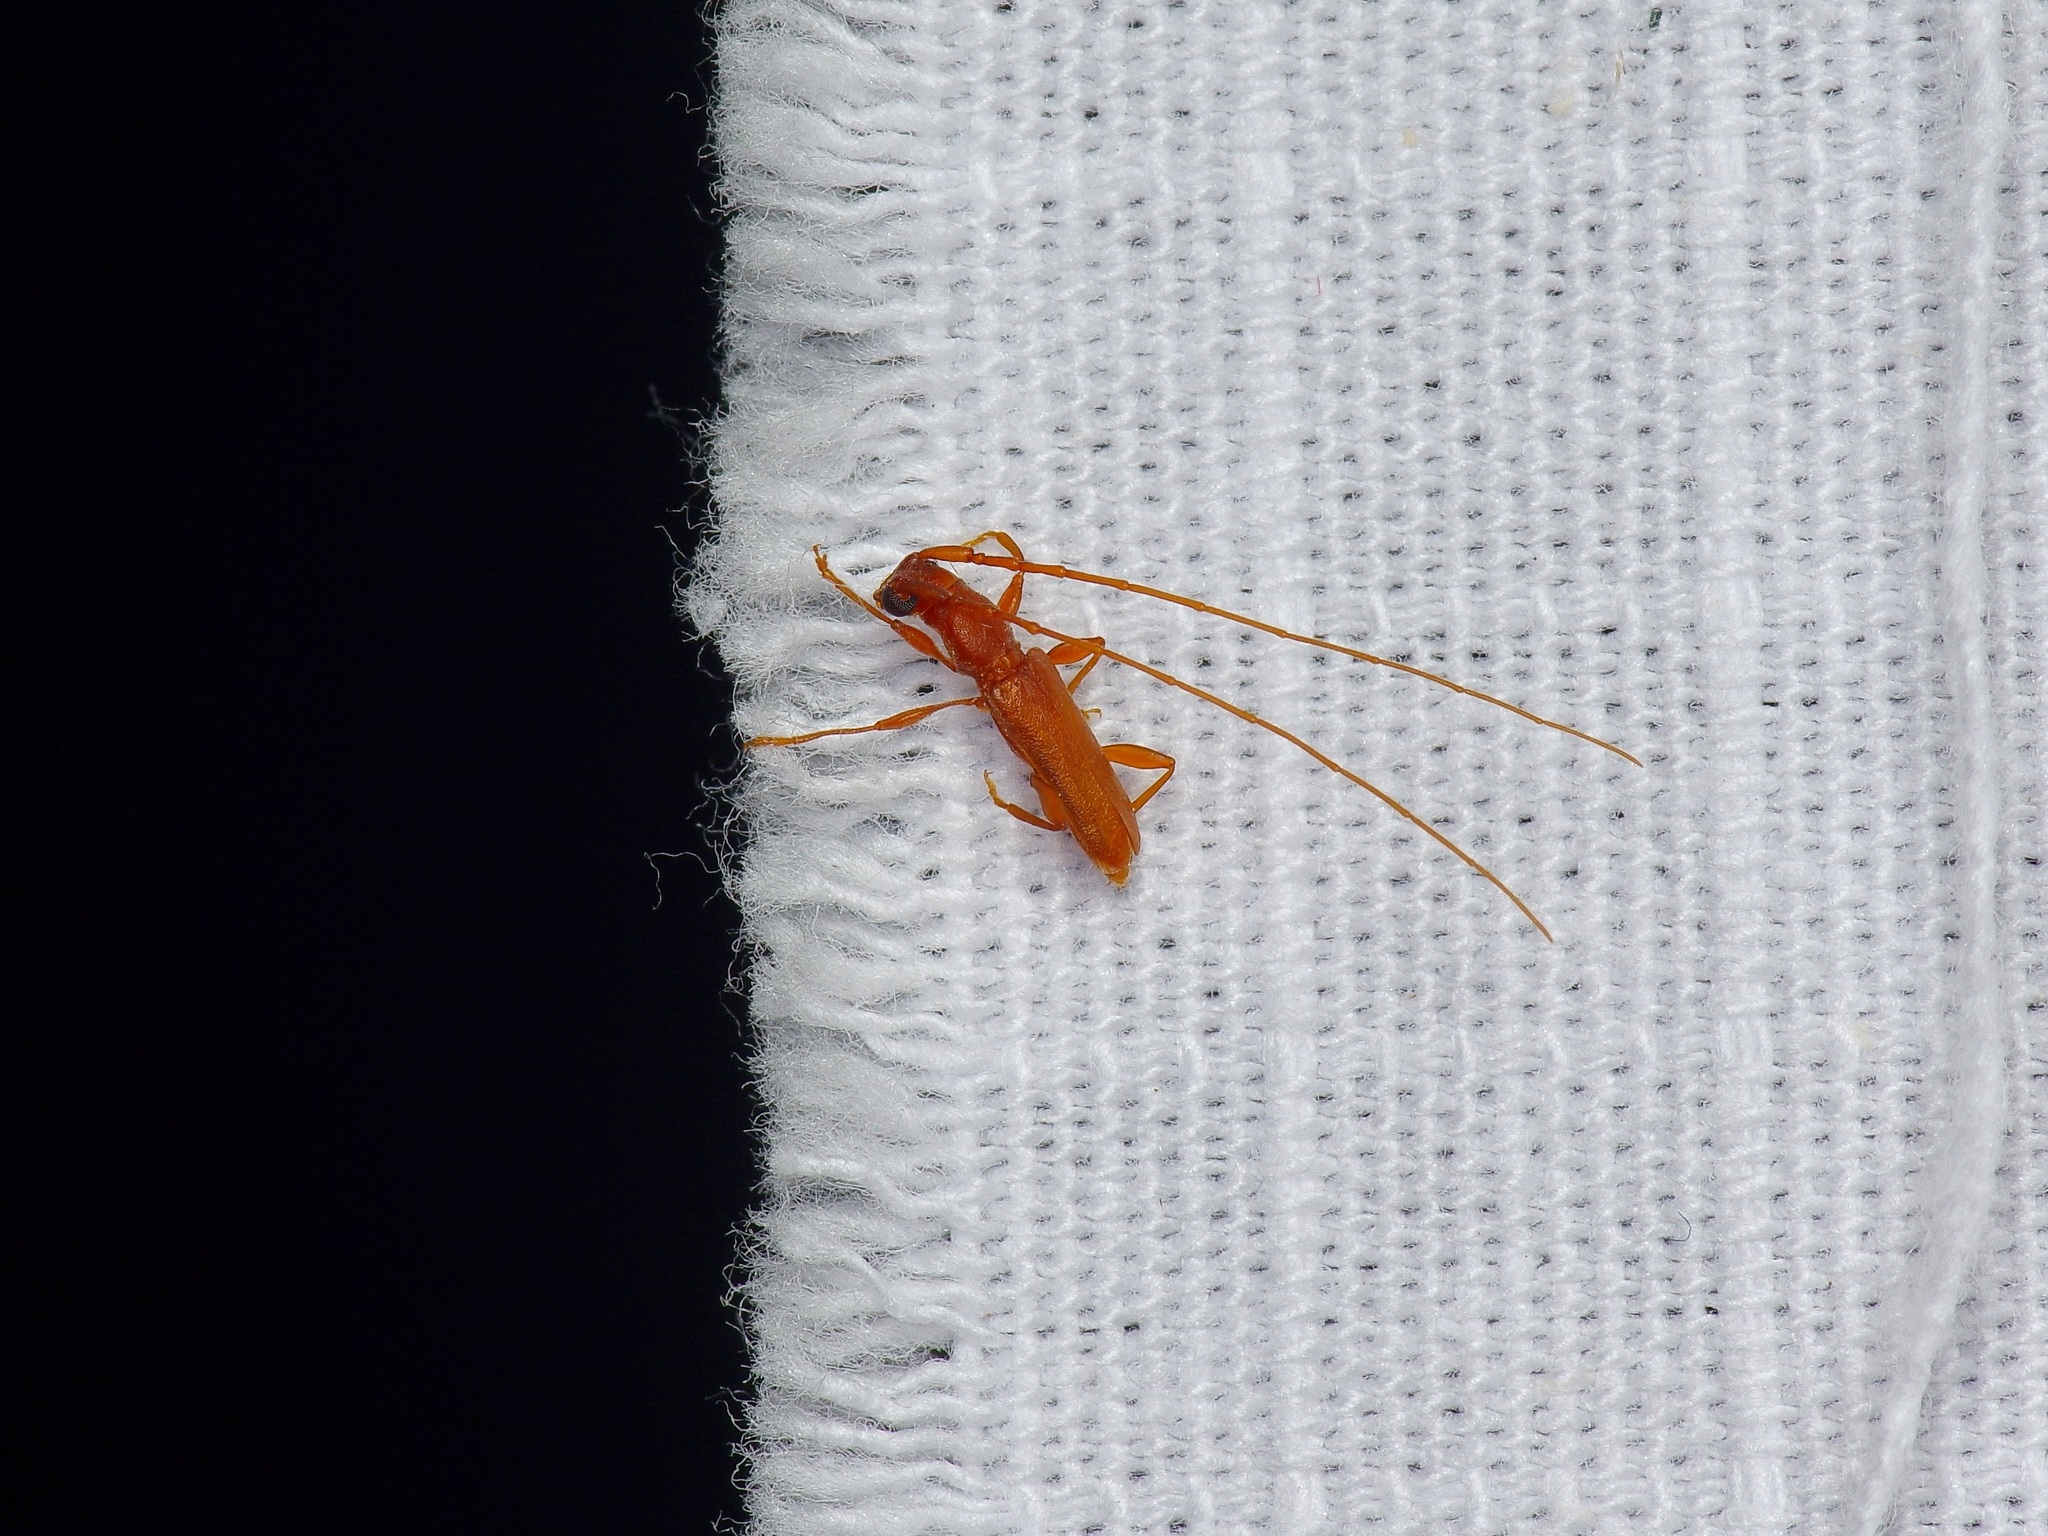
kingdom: Animalia
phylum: Arthropoda
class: Insecta
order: Coleoptera
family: Cerambycidae
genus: Hypexilis
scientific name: Hypexilis pallida
